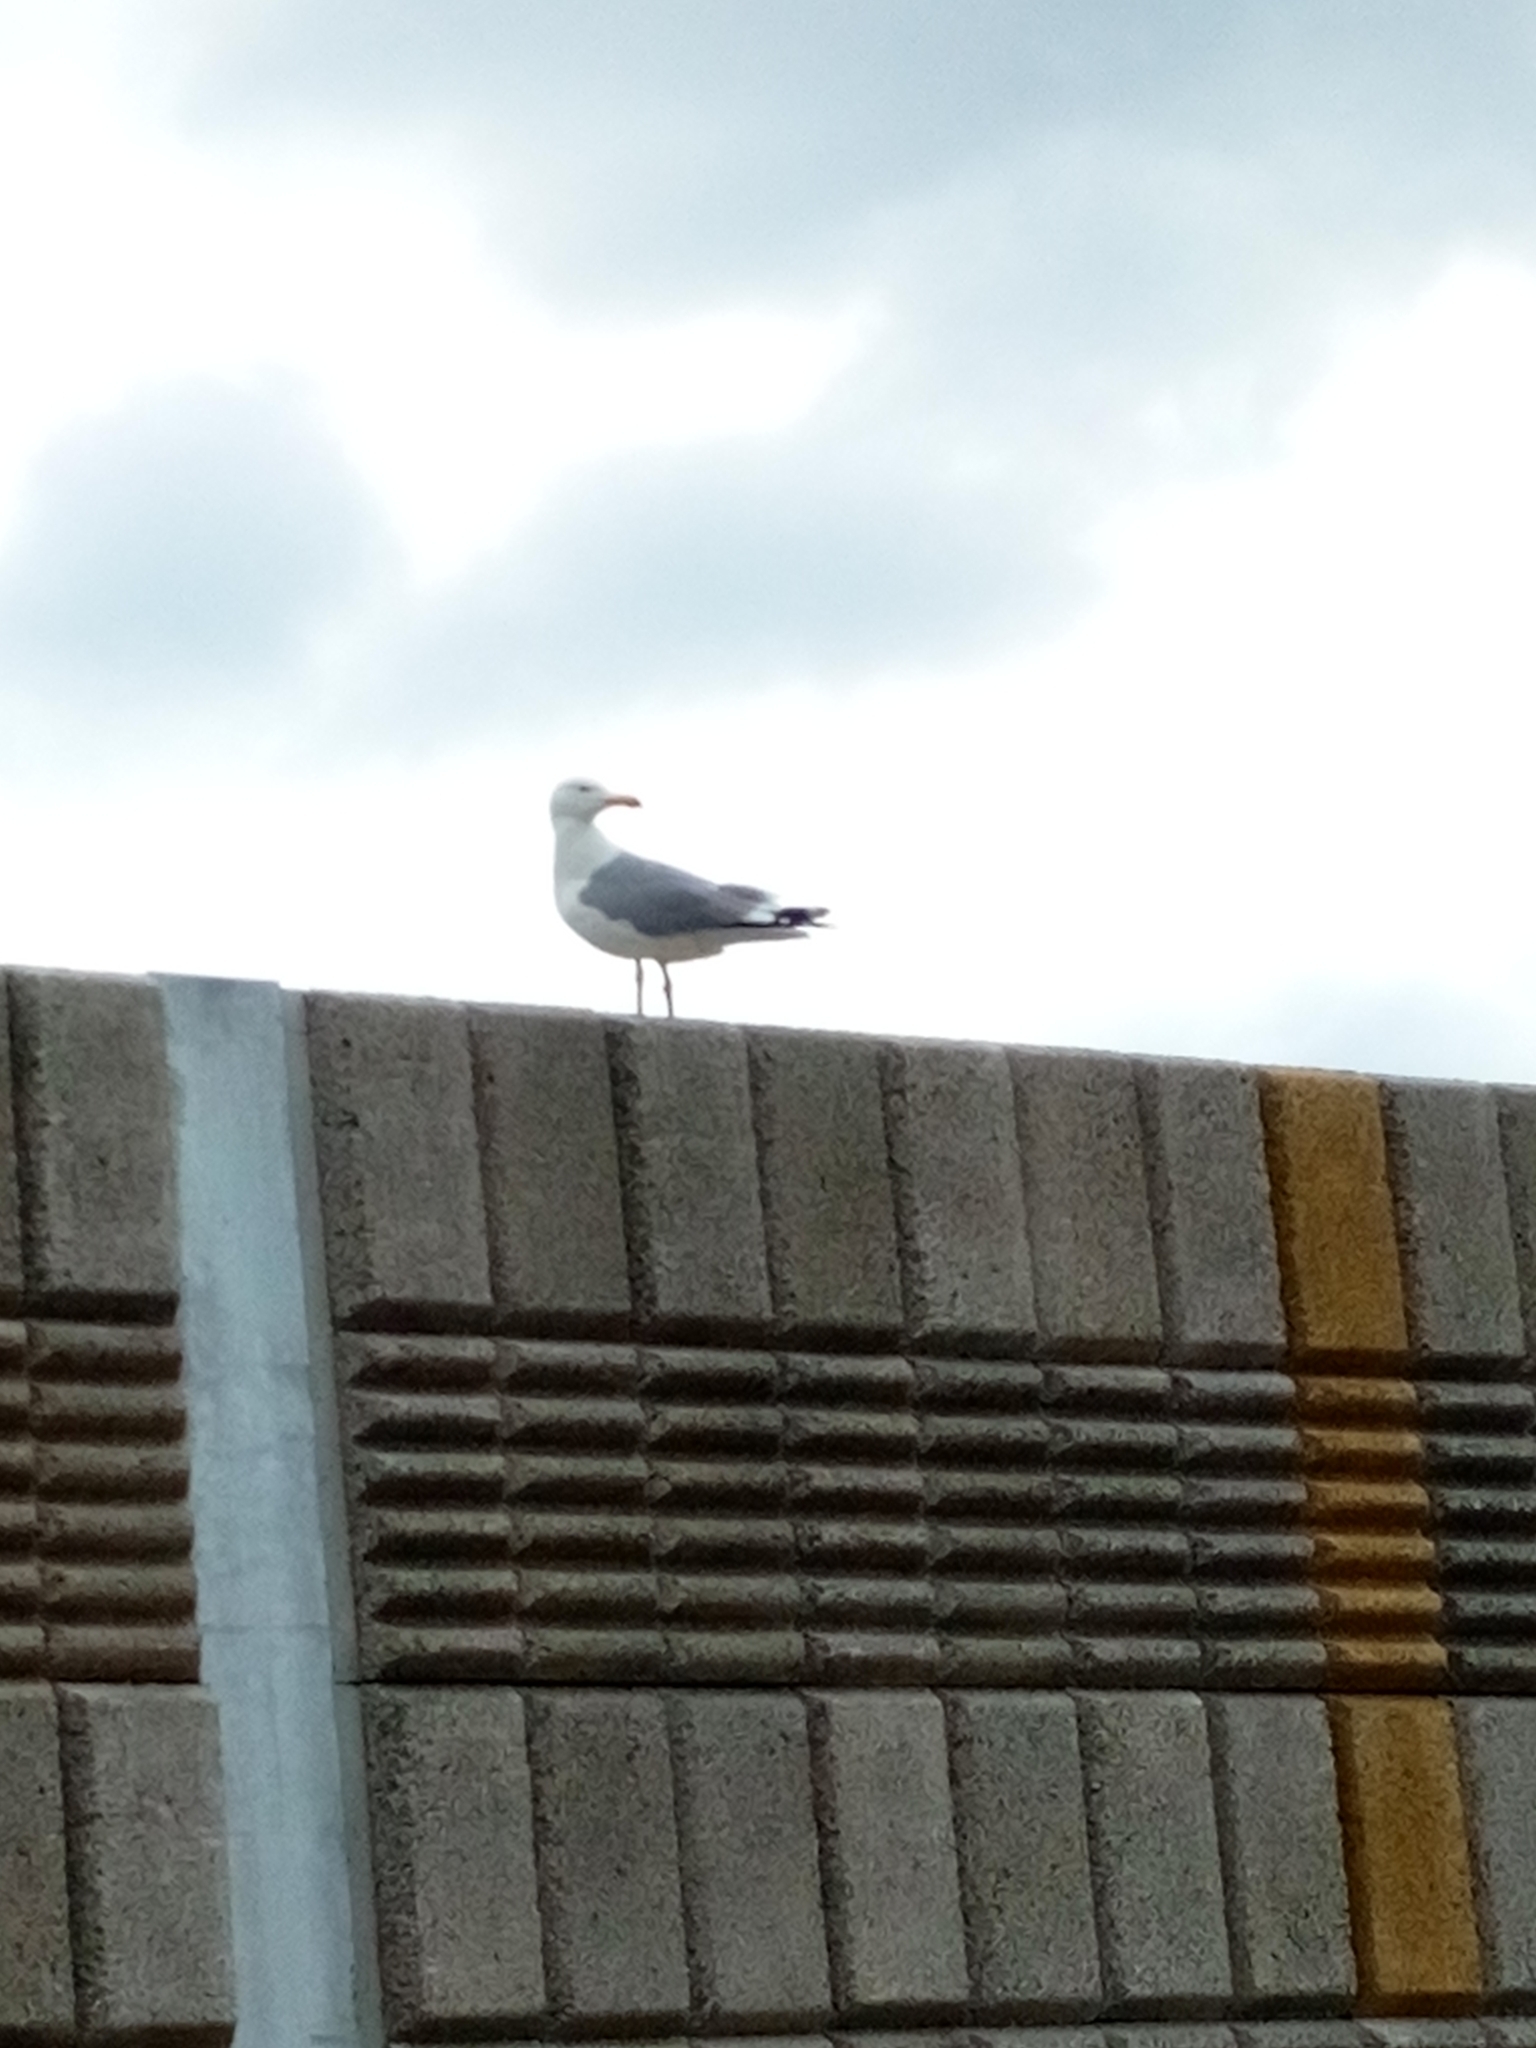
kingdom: Animalia
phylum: Chordata
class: Aves
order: Charadriiformes
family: Laridae
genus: Larus
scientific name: Larus argentatus
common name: Herring gull
